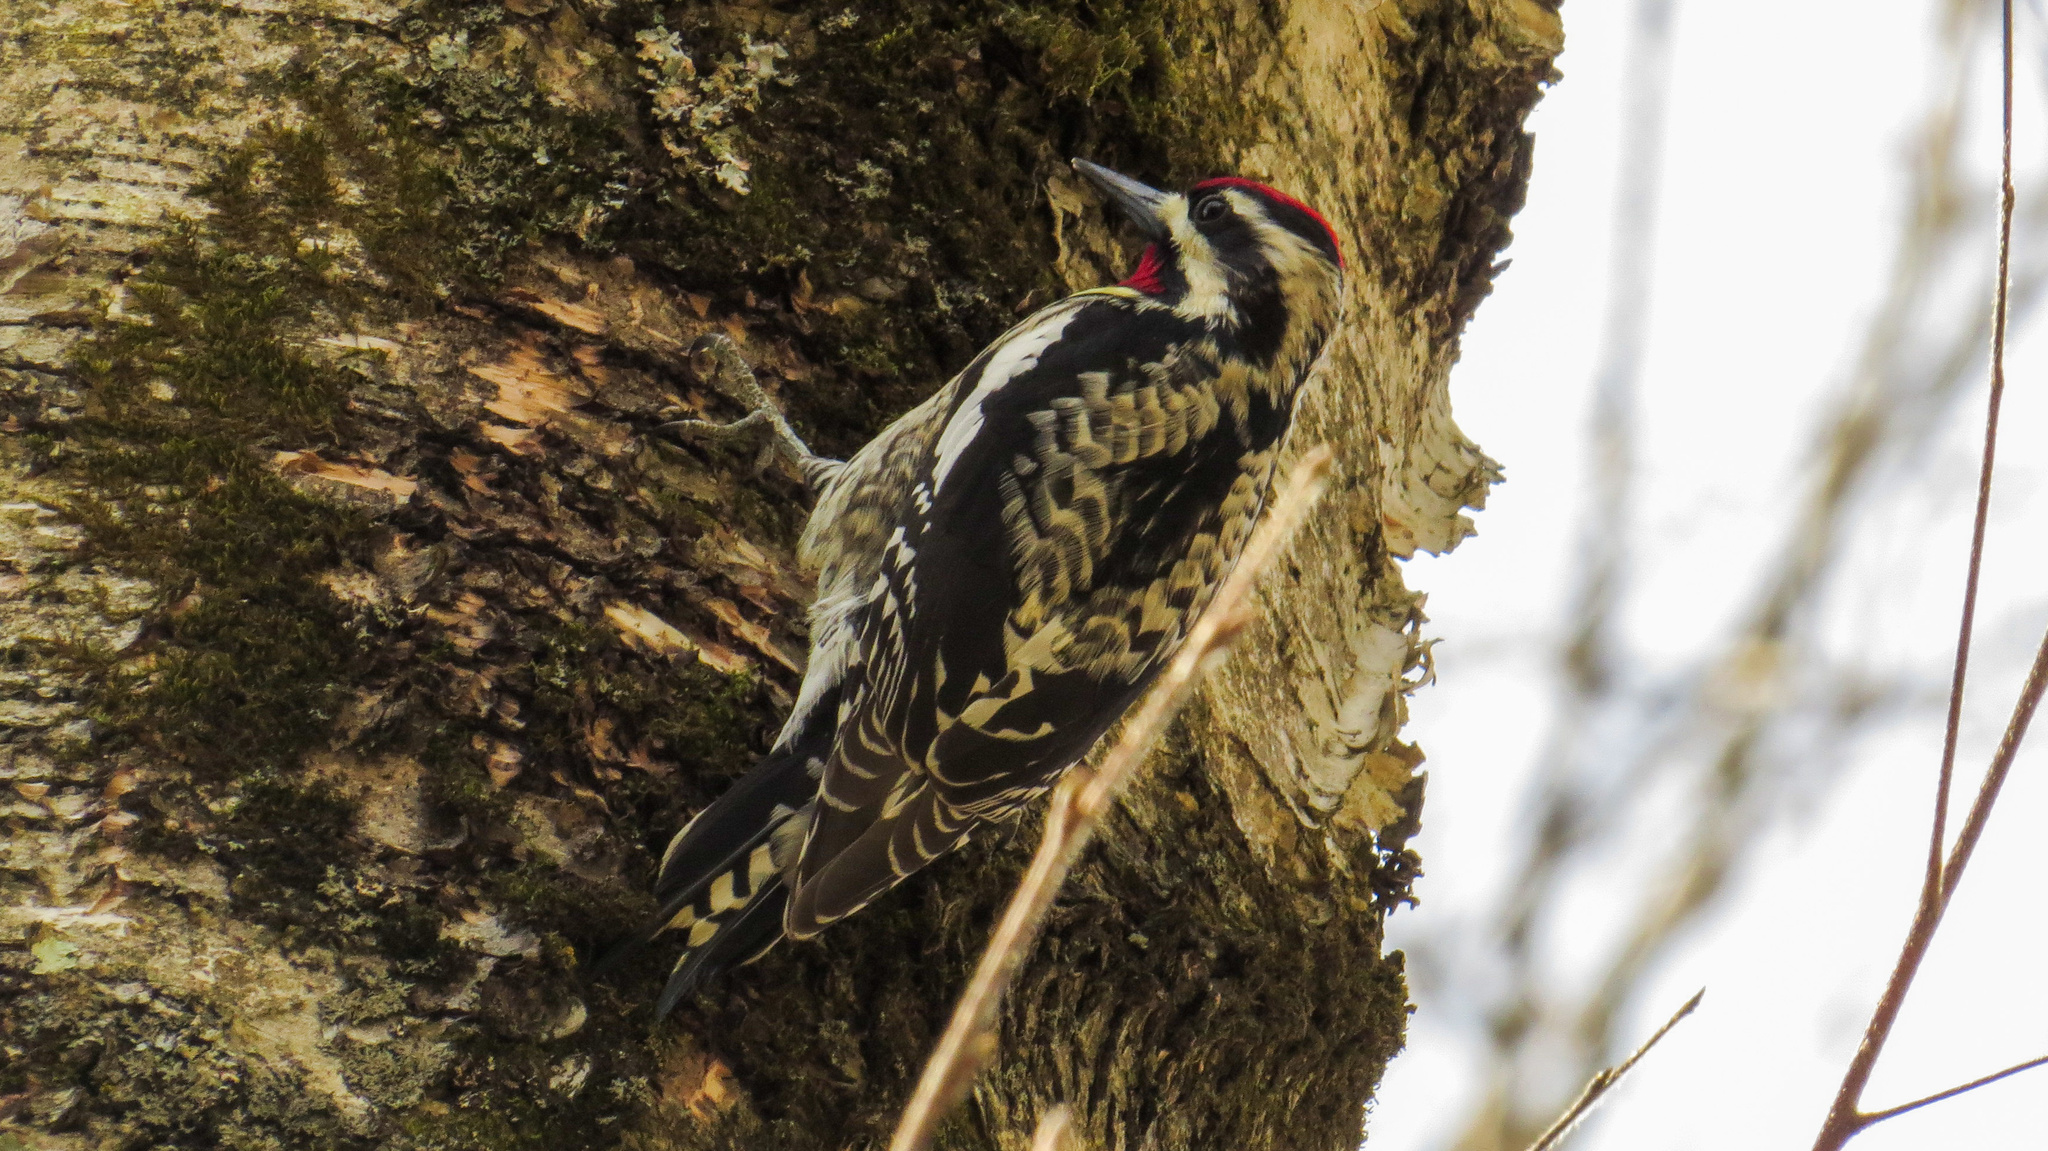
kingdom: Animalia
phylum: Chordata
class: Aves
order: Piciformes
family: Picidae
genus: Sphyrapicus
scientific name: Sphyrapicus varius
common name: Yellow-bellied sapsucker
